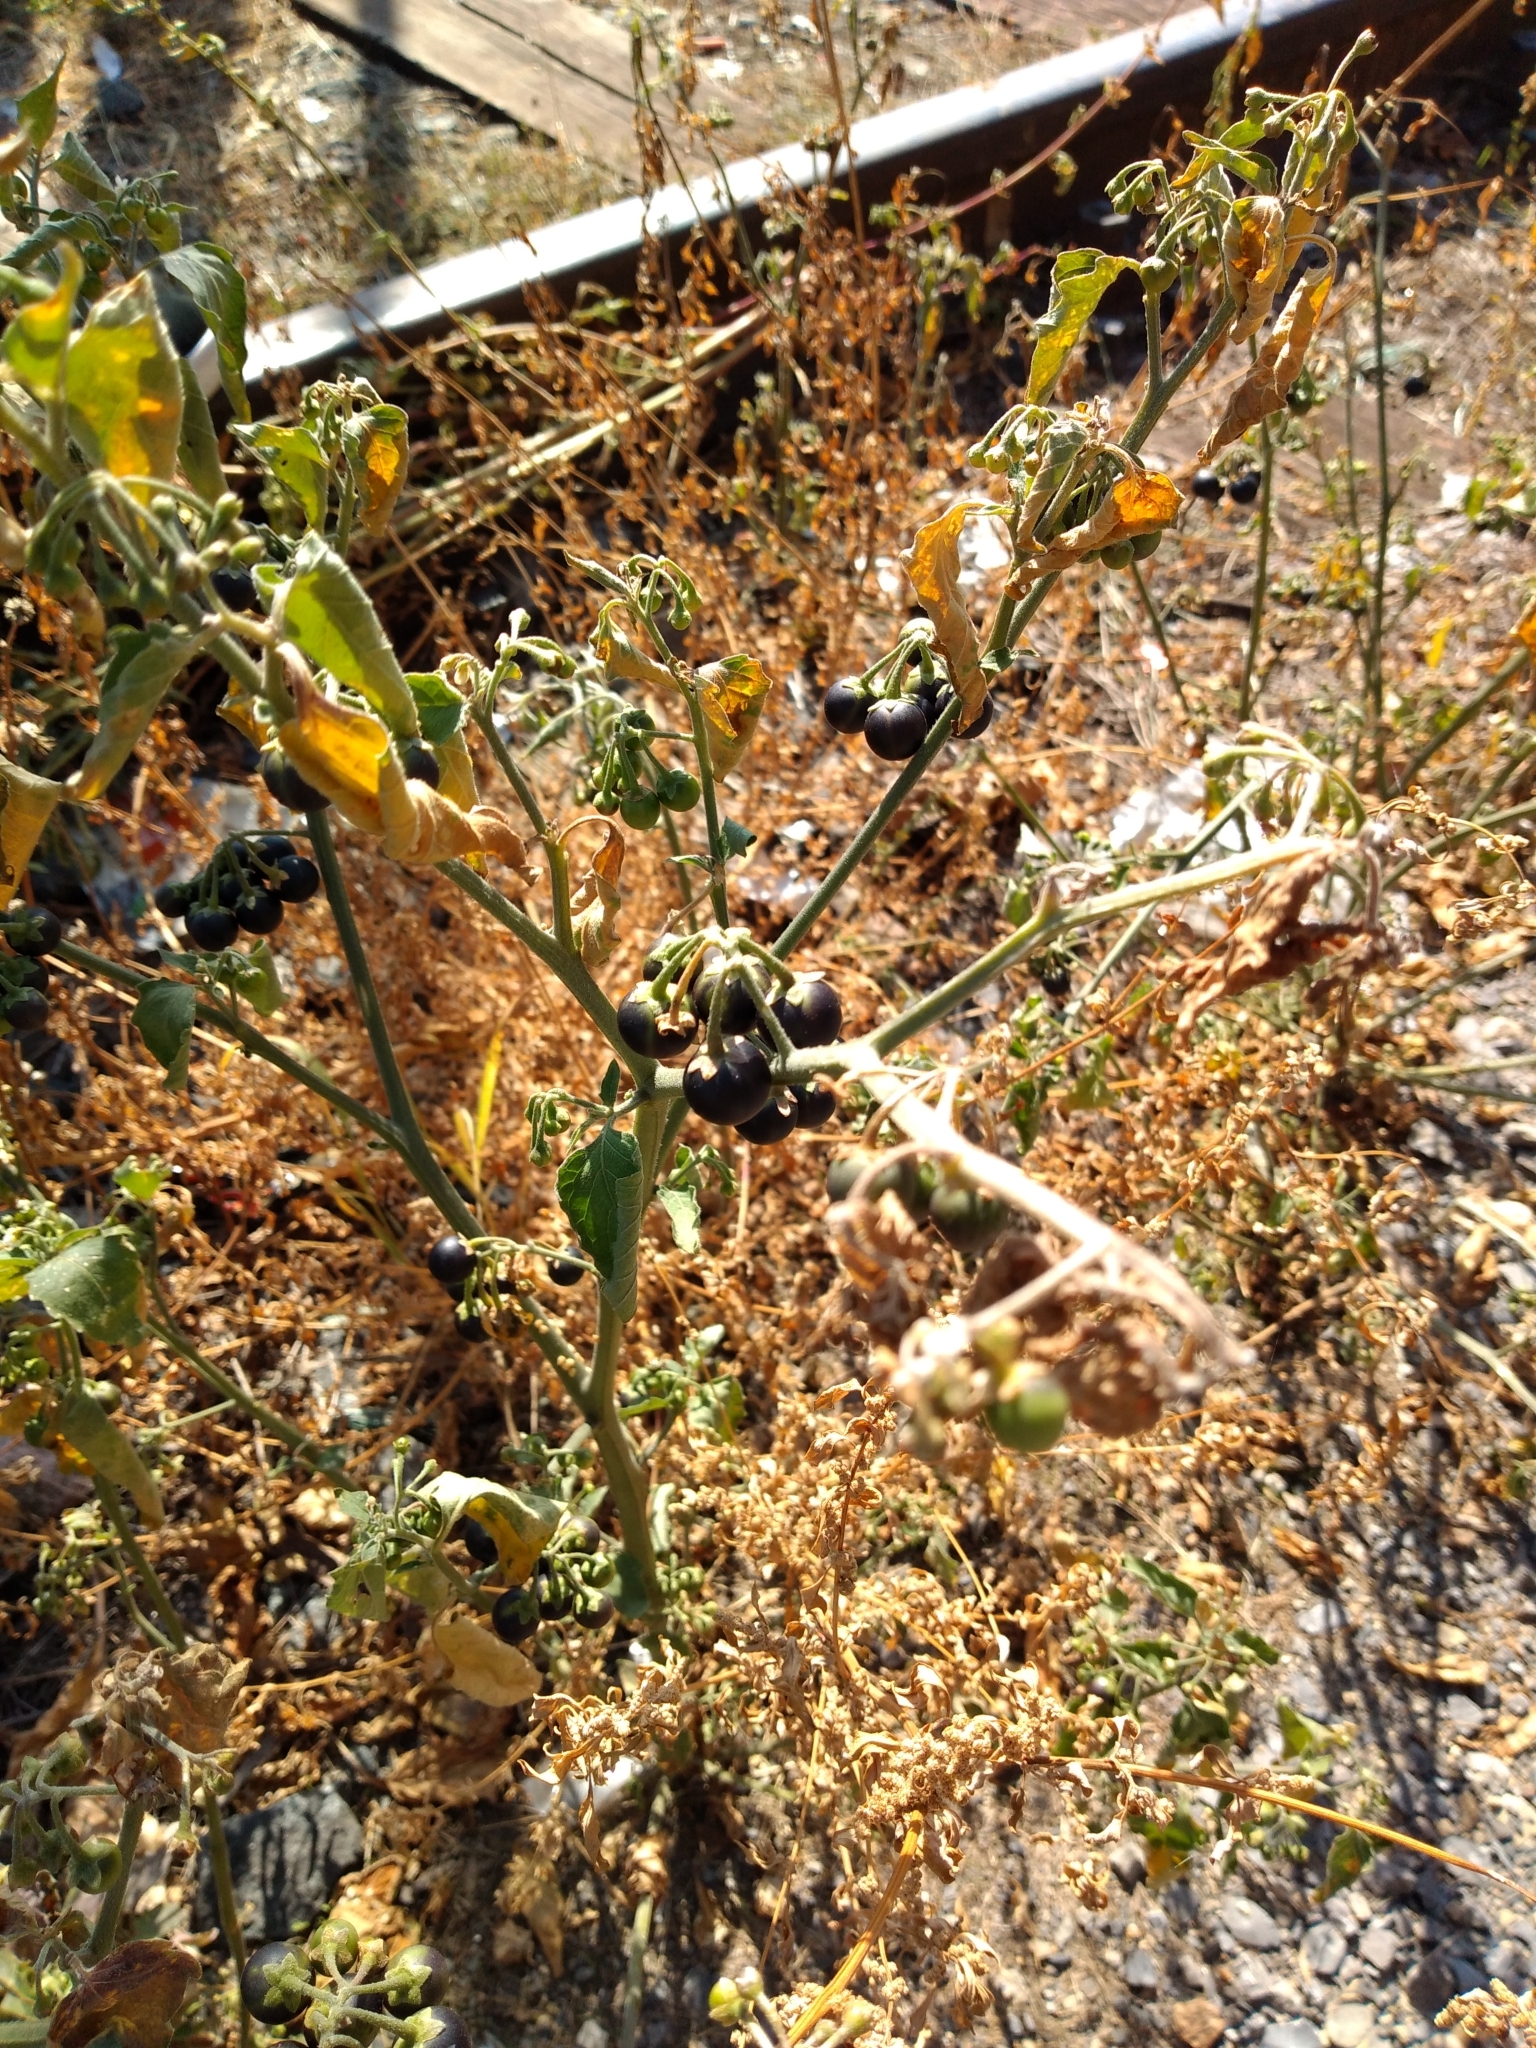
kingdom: Plantae
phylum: Tracheophyta
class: Magnoliopsida
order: Solanales
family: Solanaceae
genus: Solanum
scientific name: Solanum nigrum
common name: Black nightshade
